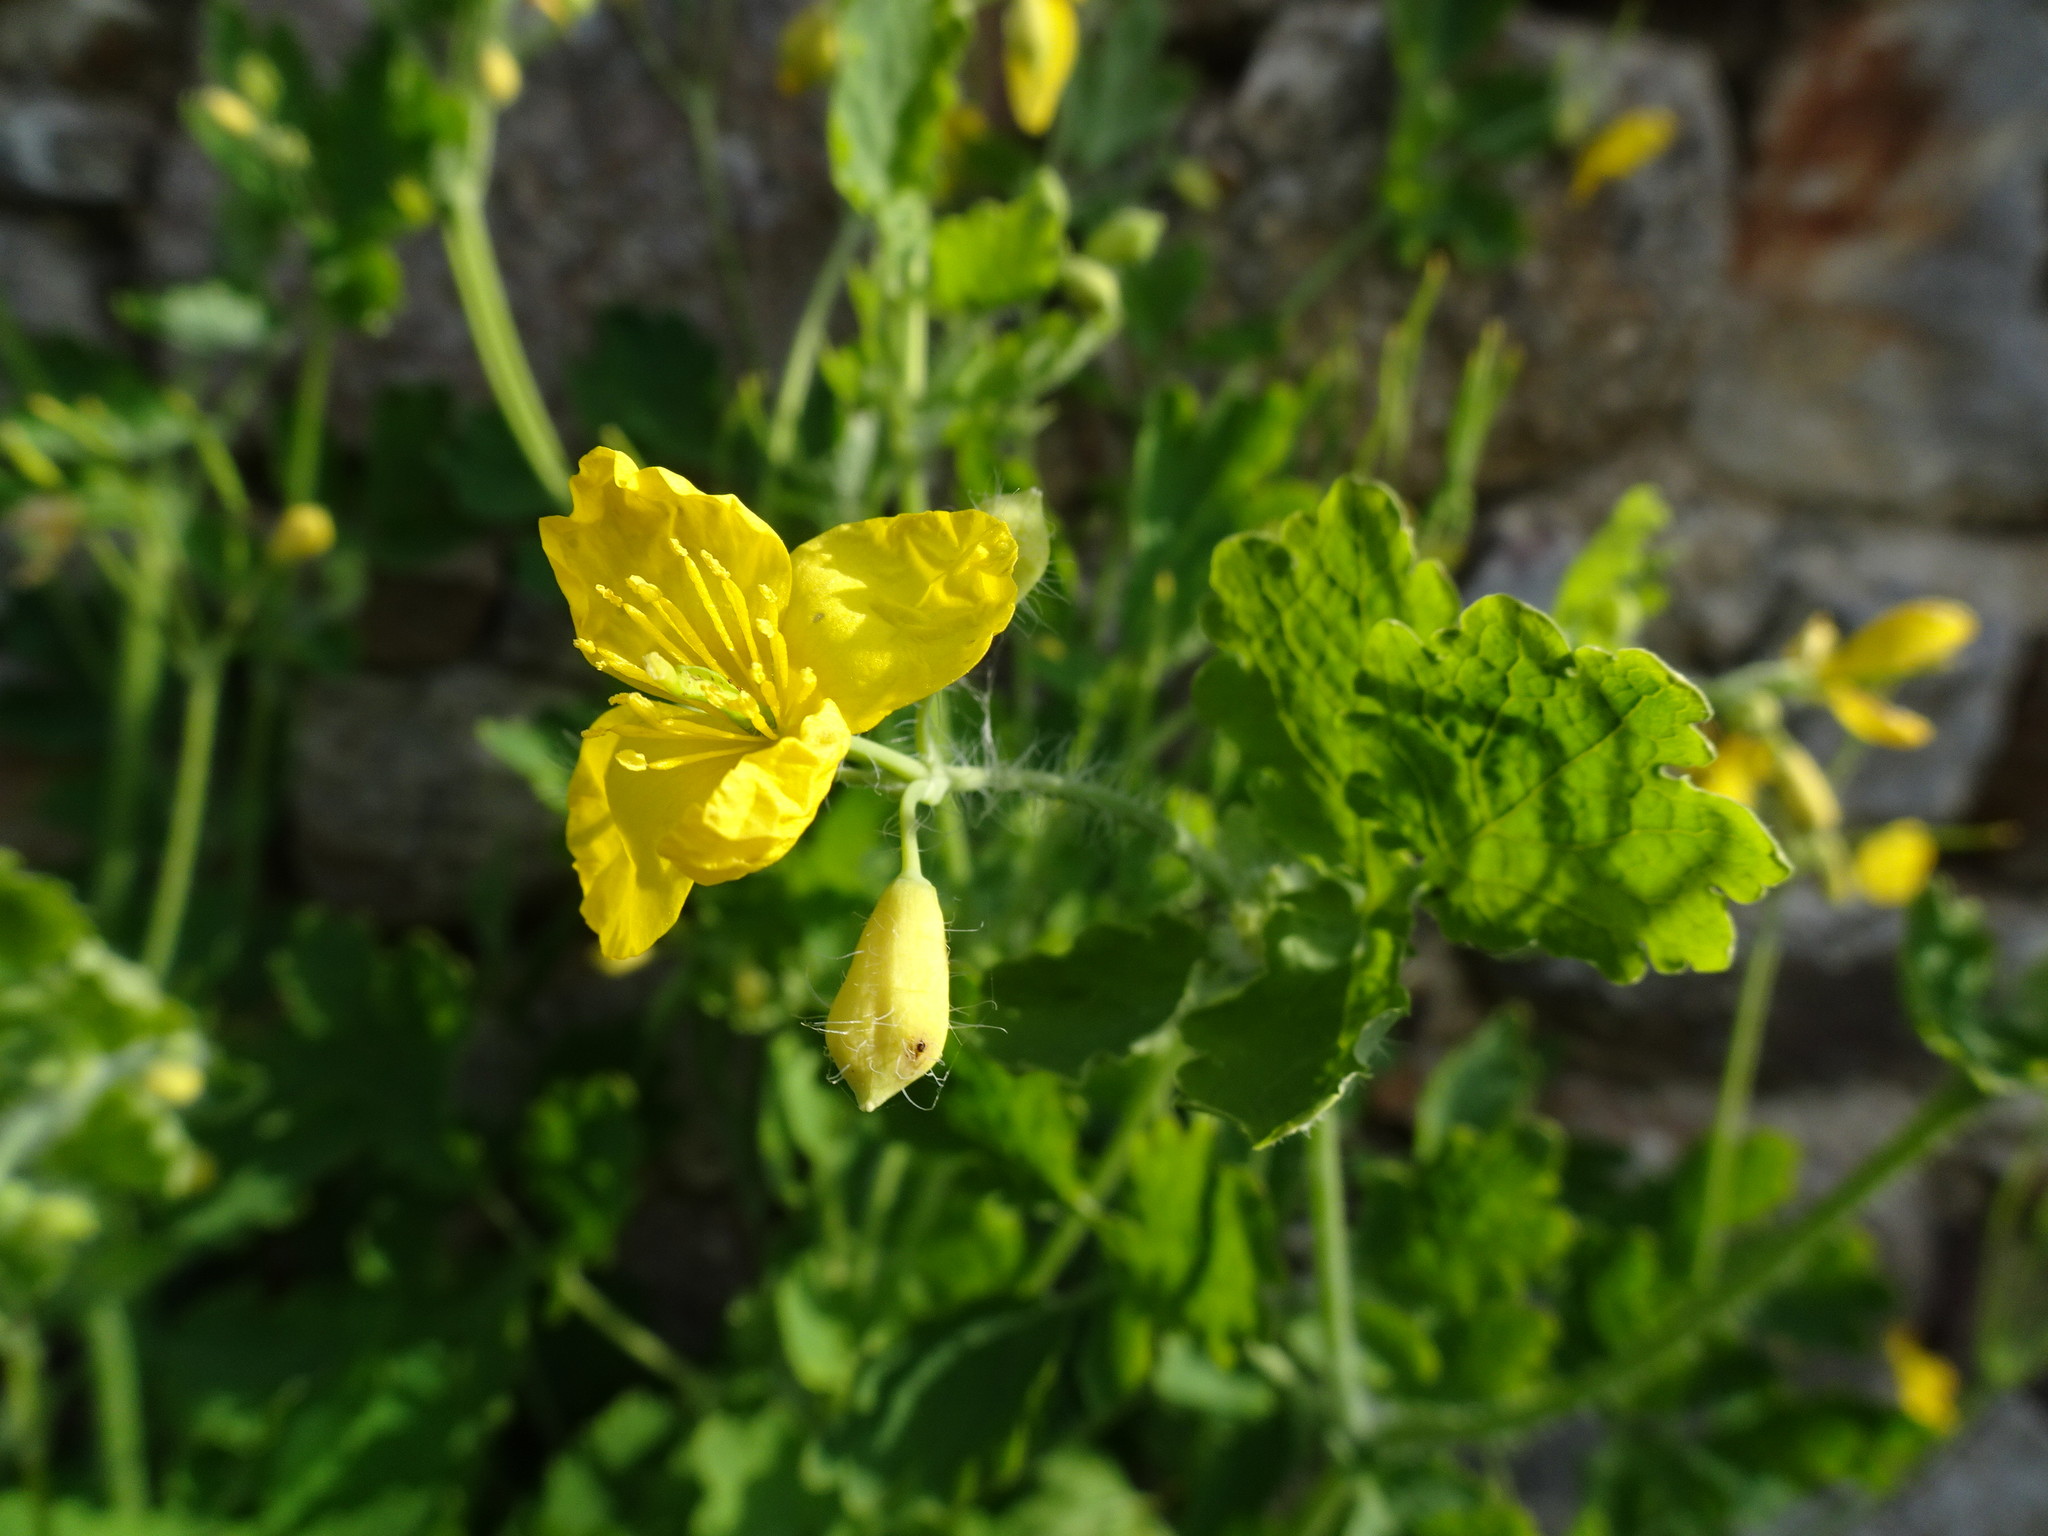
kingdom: Plantae
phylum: Tracheophyta
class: Magnoliopsida
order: Ranunculales
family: Papaveraceae
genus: Chelidonium
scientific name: Chelidonium majus
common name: Greater celandine
